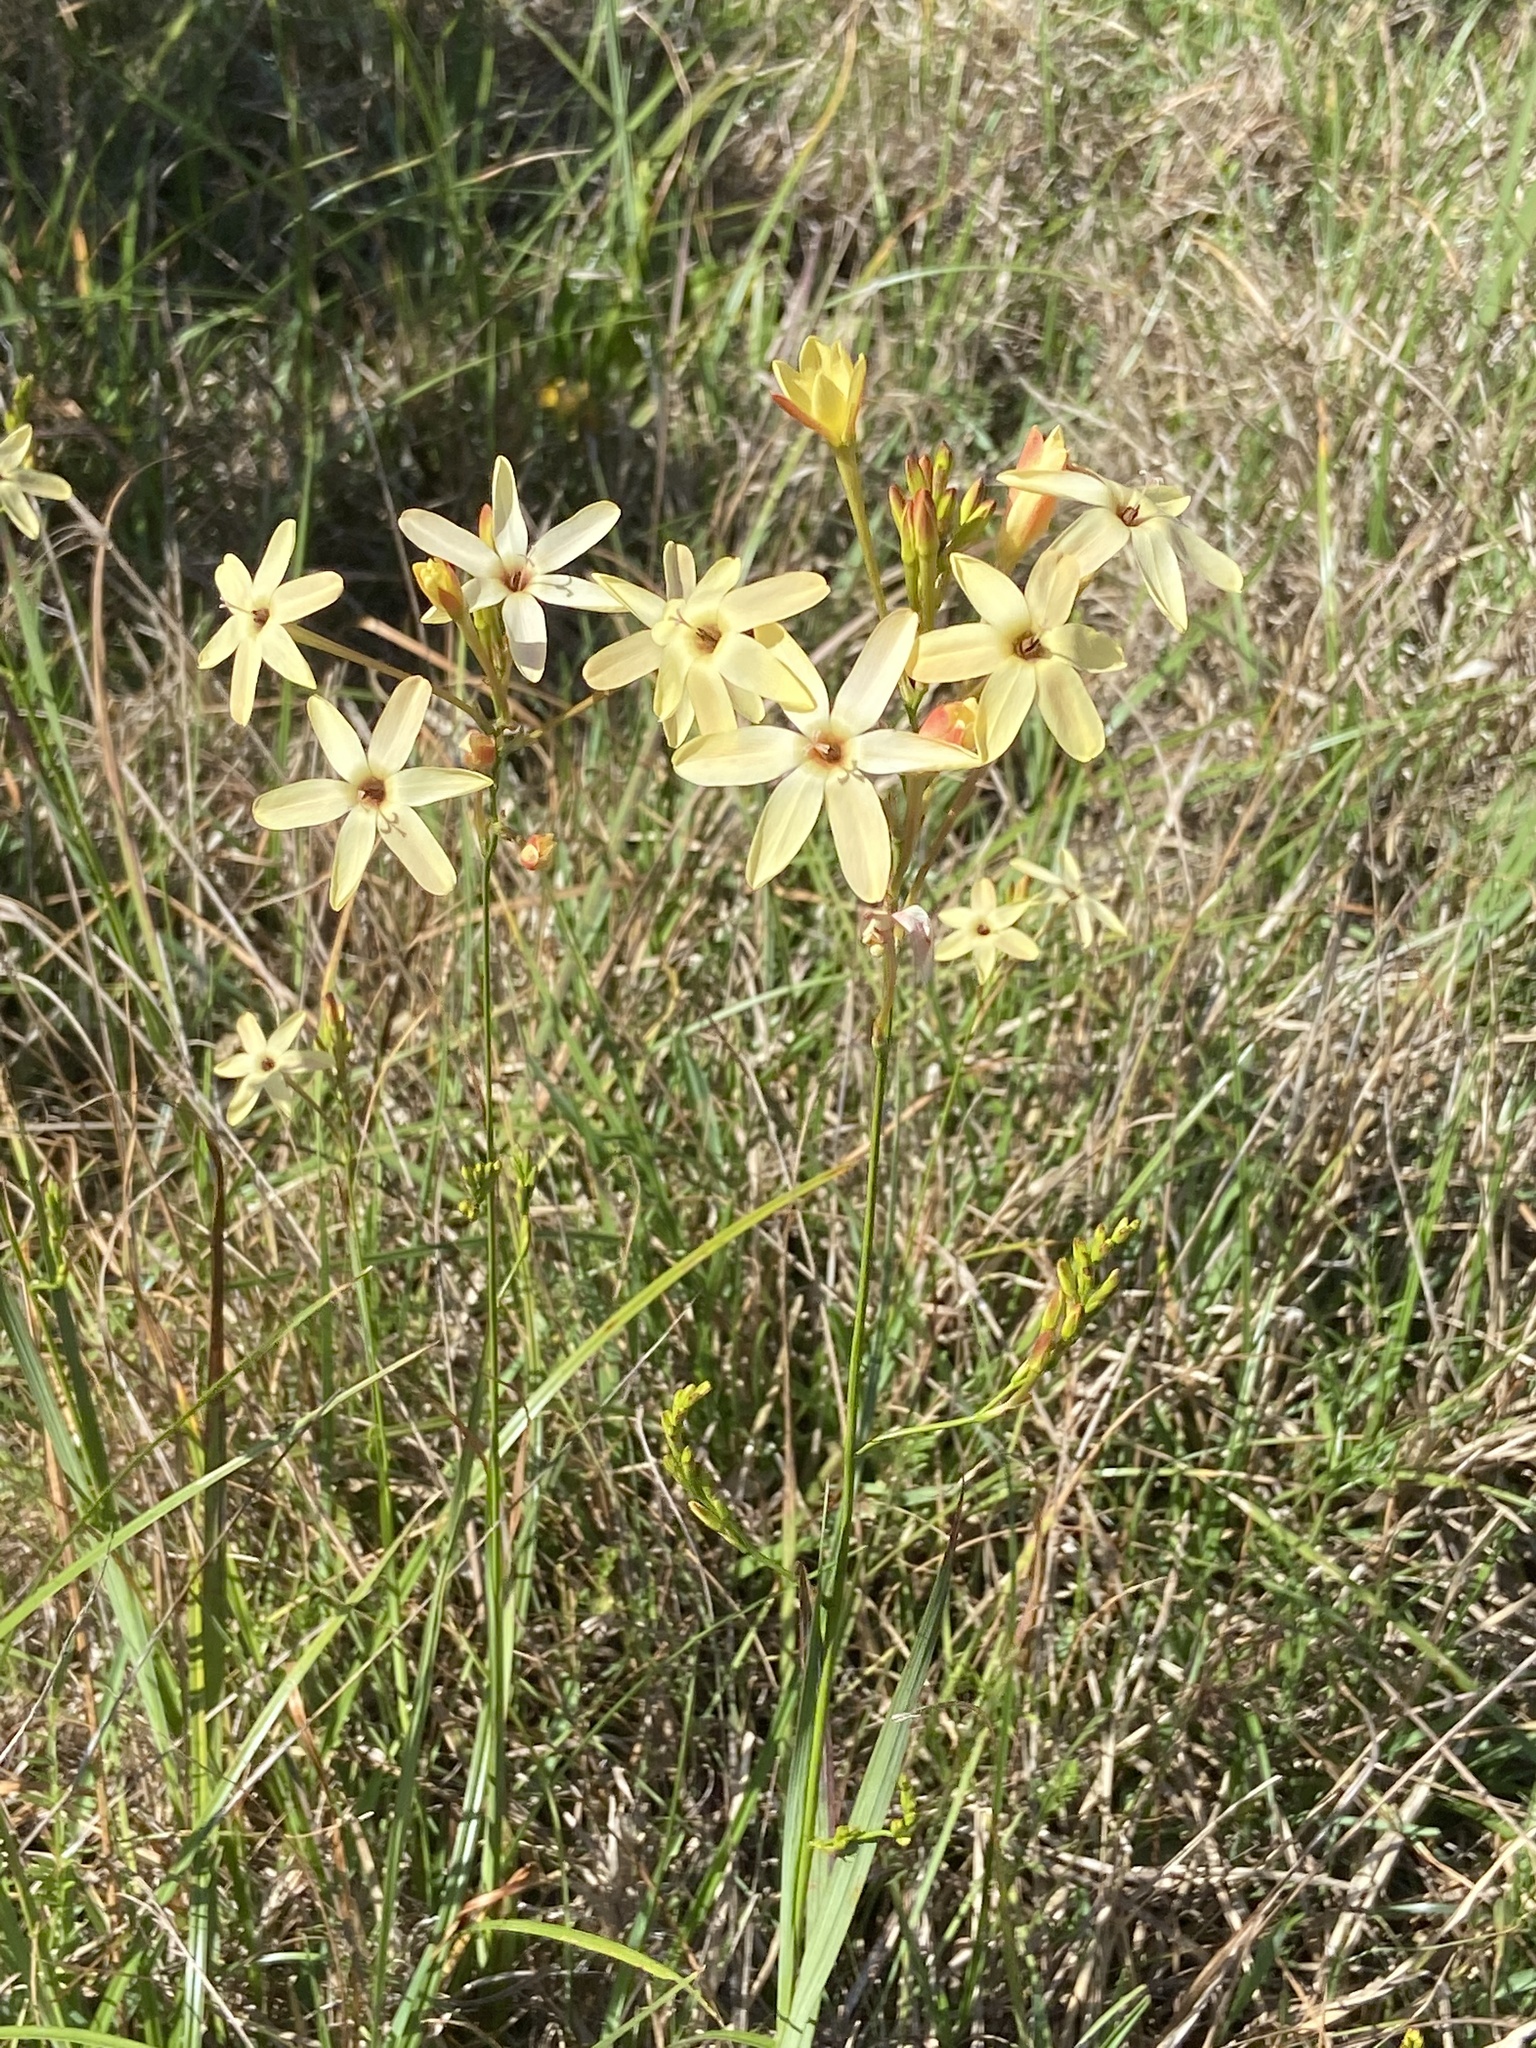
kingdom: Plantae
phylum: Tracheophyta
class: Liliopsida
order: Asparagales
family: Iridaceae
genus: Ixia
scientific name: Ixia paniculata
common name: Tubular corn-lily
